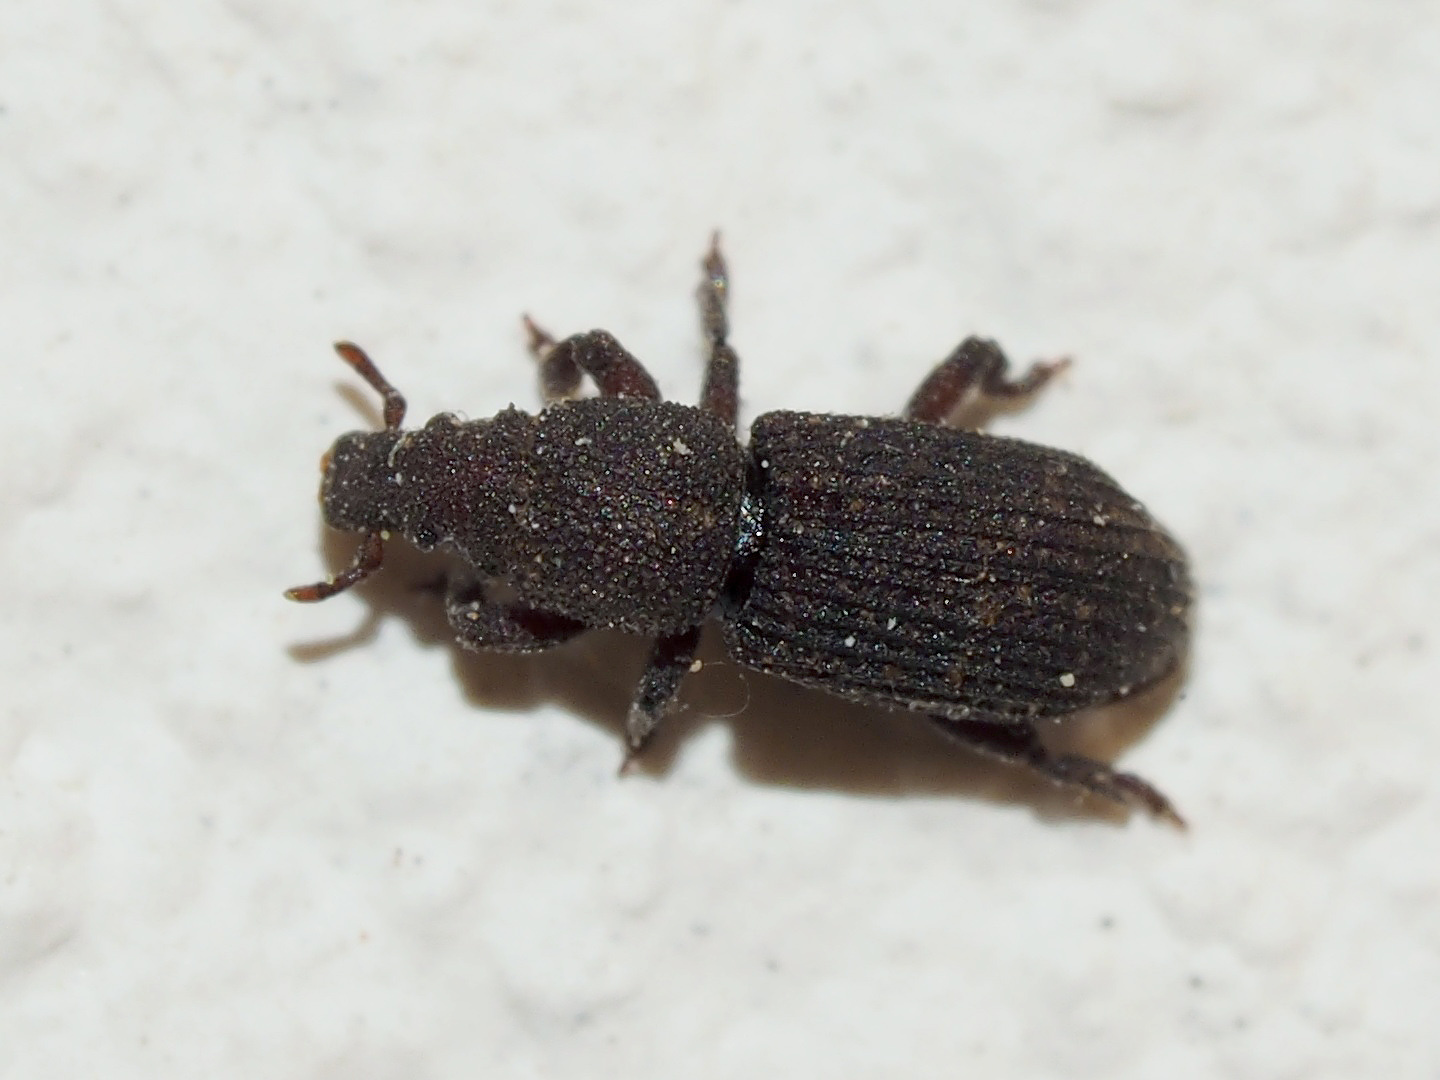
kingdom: Animalia
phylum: Arthropoda
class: Insecta
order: Coleoptera
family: Curculionidae
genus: Choerorhinus
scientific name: Choerorhinus squalidus
